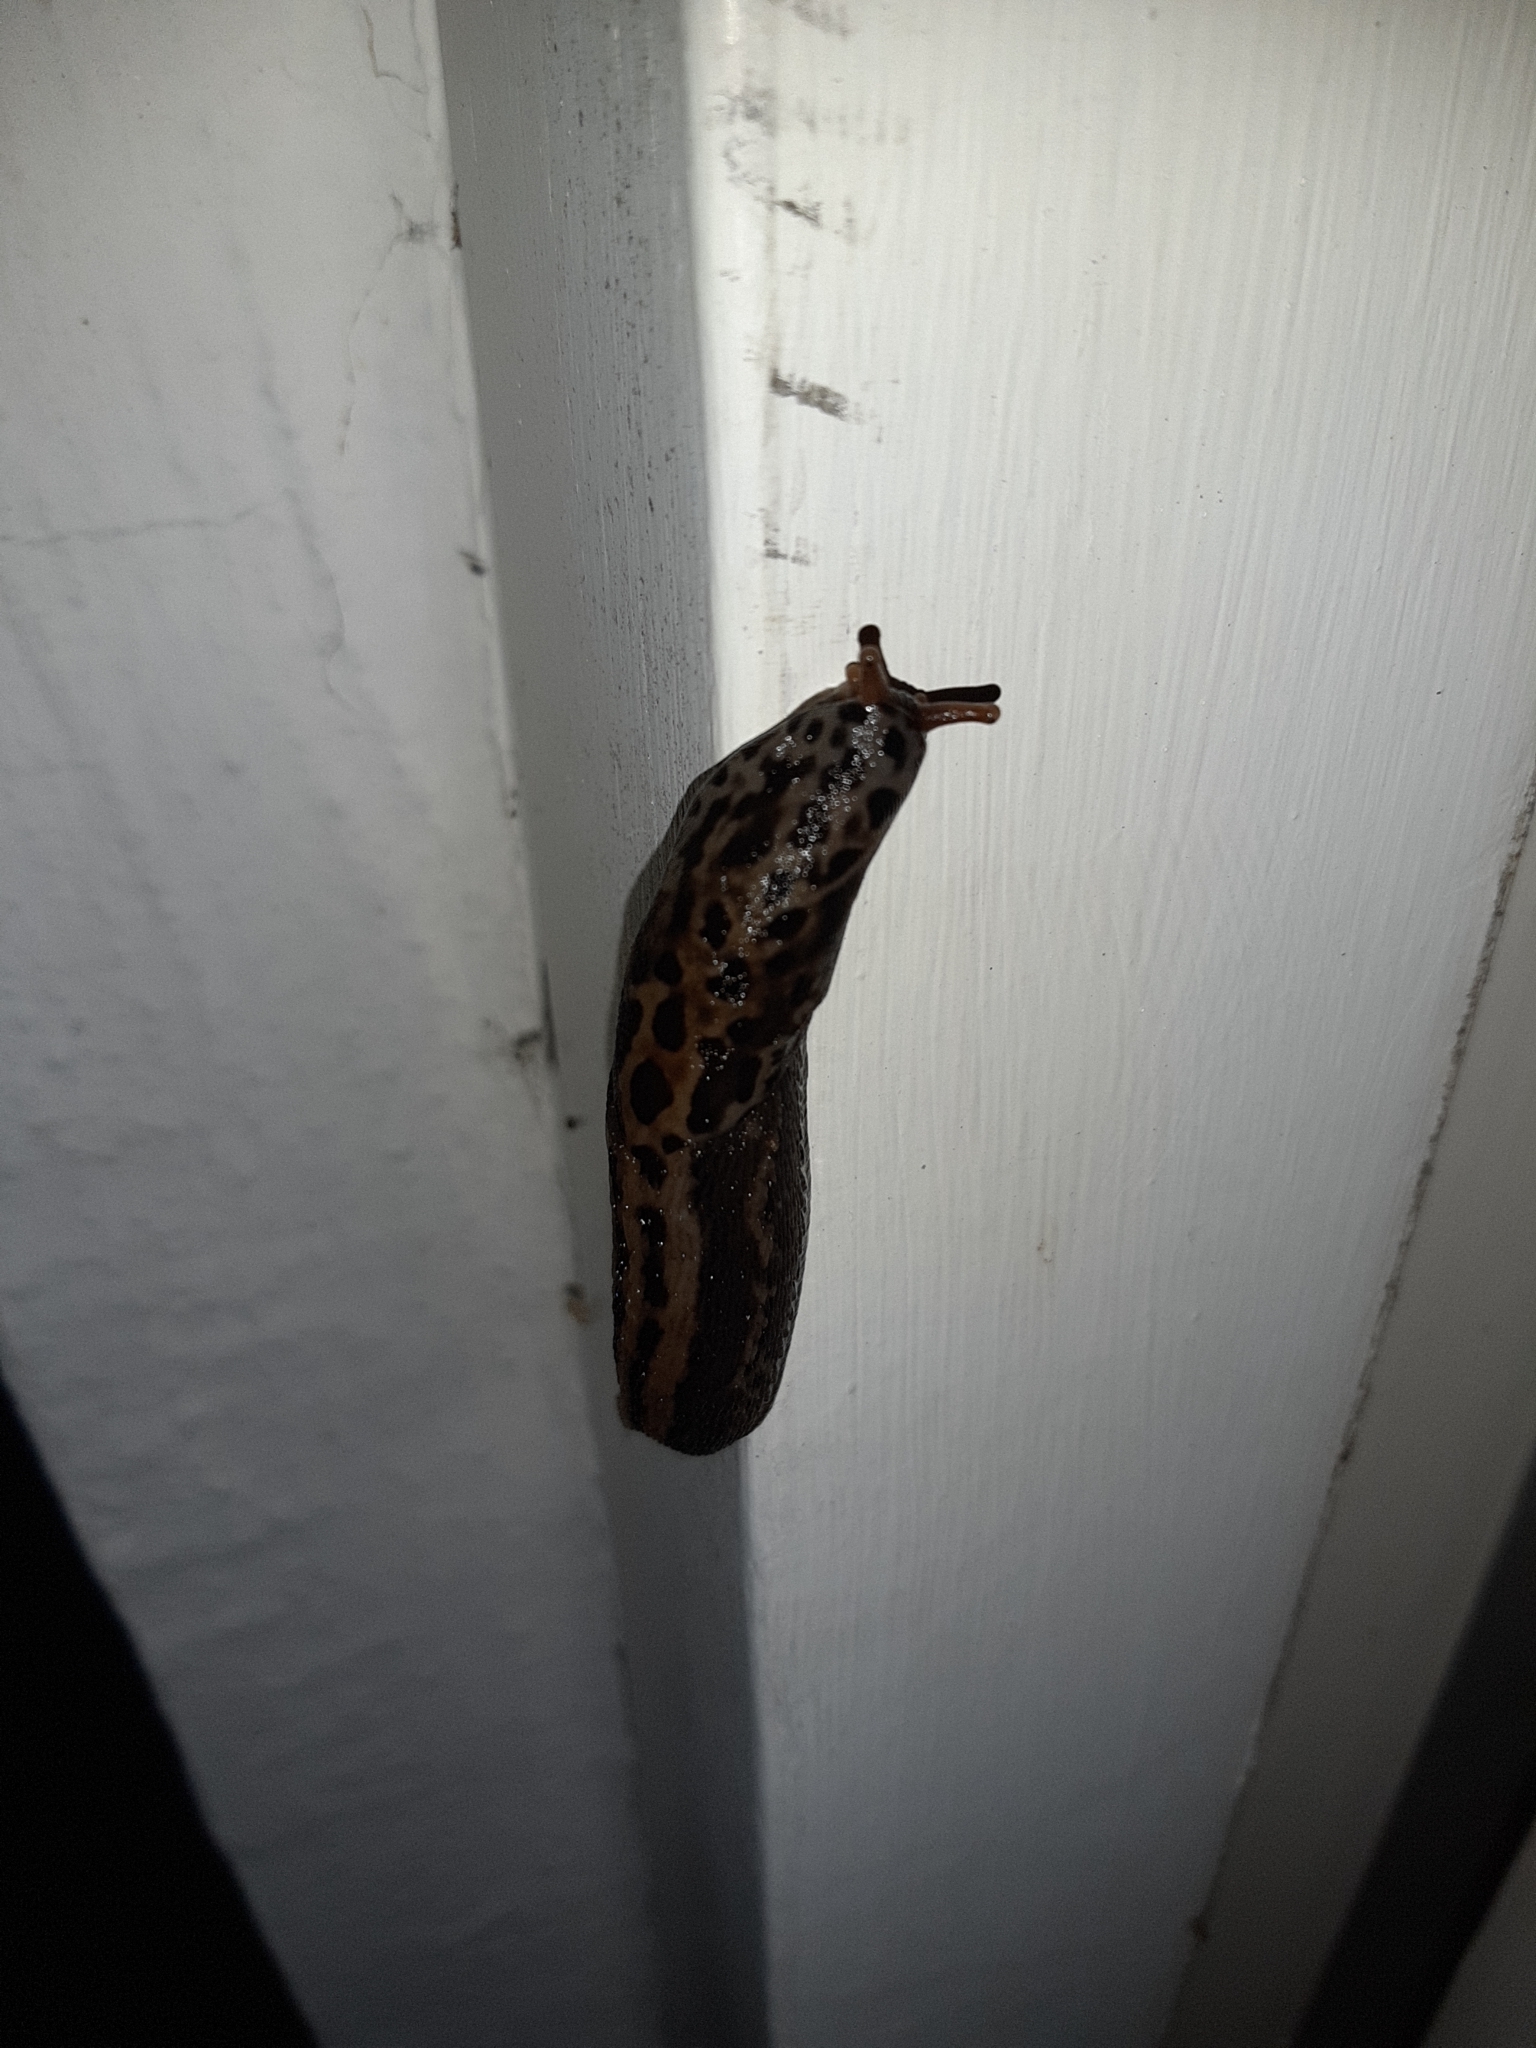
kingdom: Animalia
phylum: Mollusca
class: Gastropoda
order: Stylommatophora
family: Limacidae
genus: Limax
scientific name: Limax maximus
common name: Great grey slug
